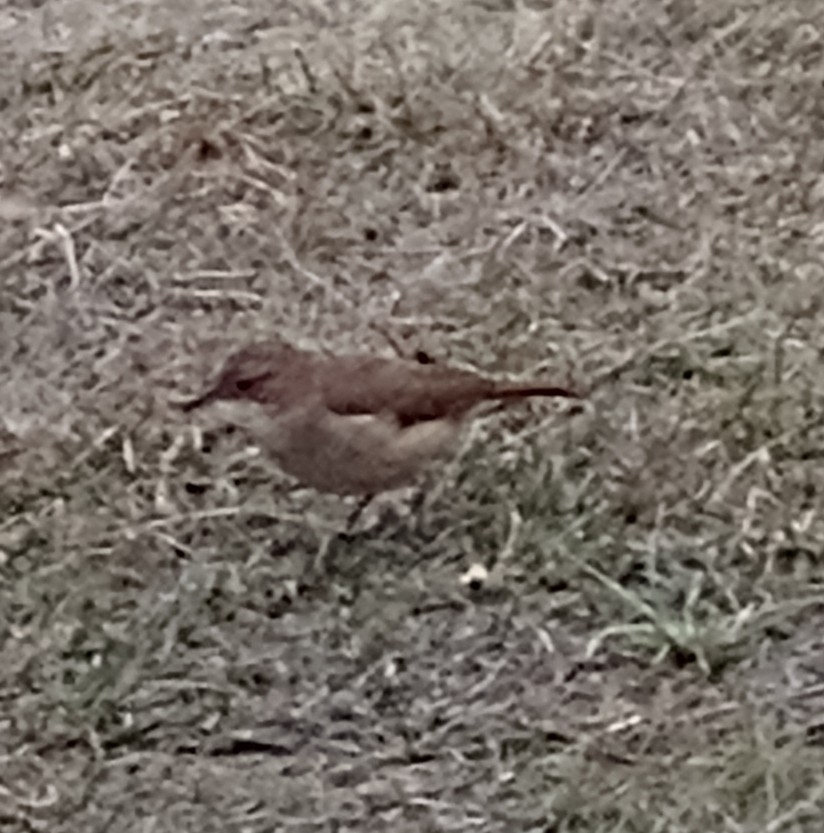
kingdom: Animalia
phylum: Chordata
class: Aves
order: Passeriformes
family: Furnariidae
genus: Furnarius
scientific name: Furnarius rufus
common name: Rufous hornero
